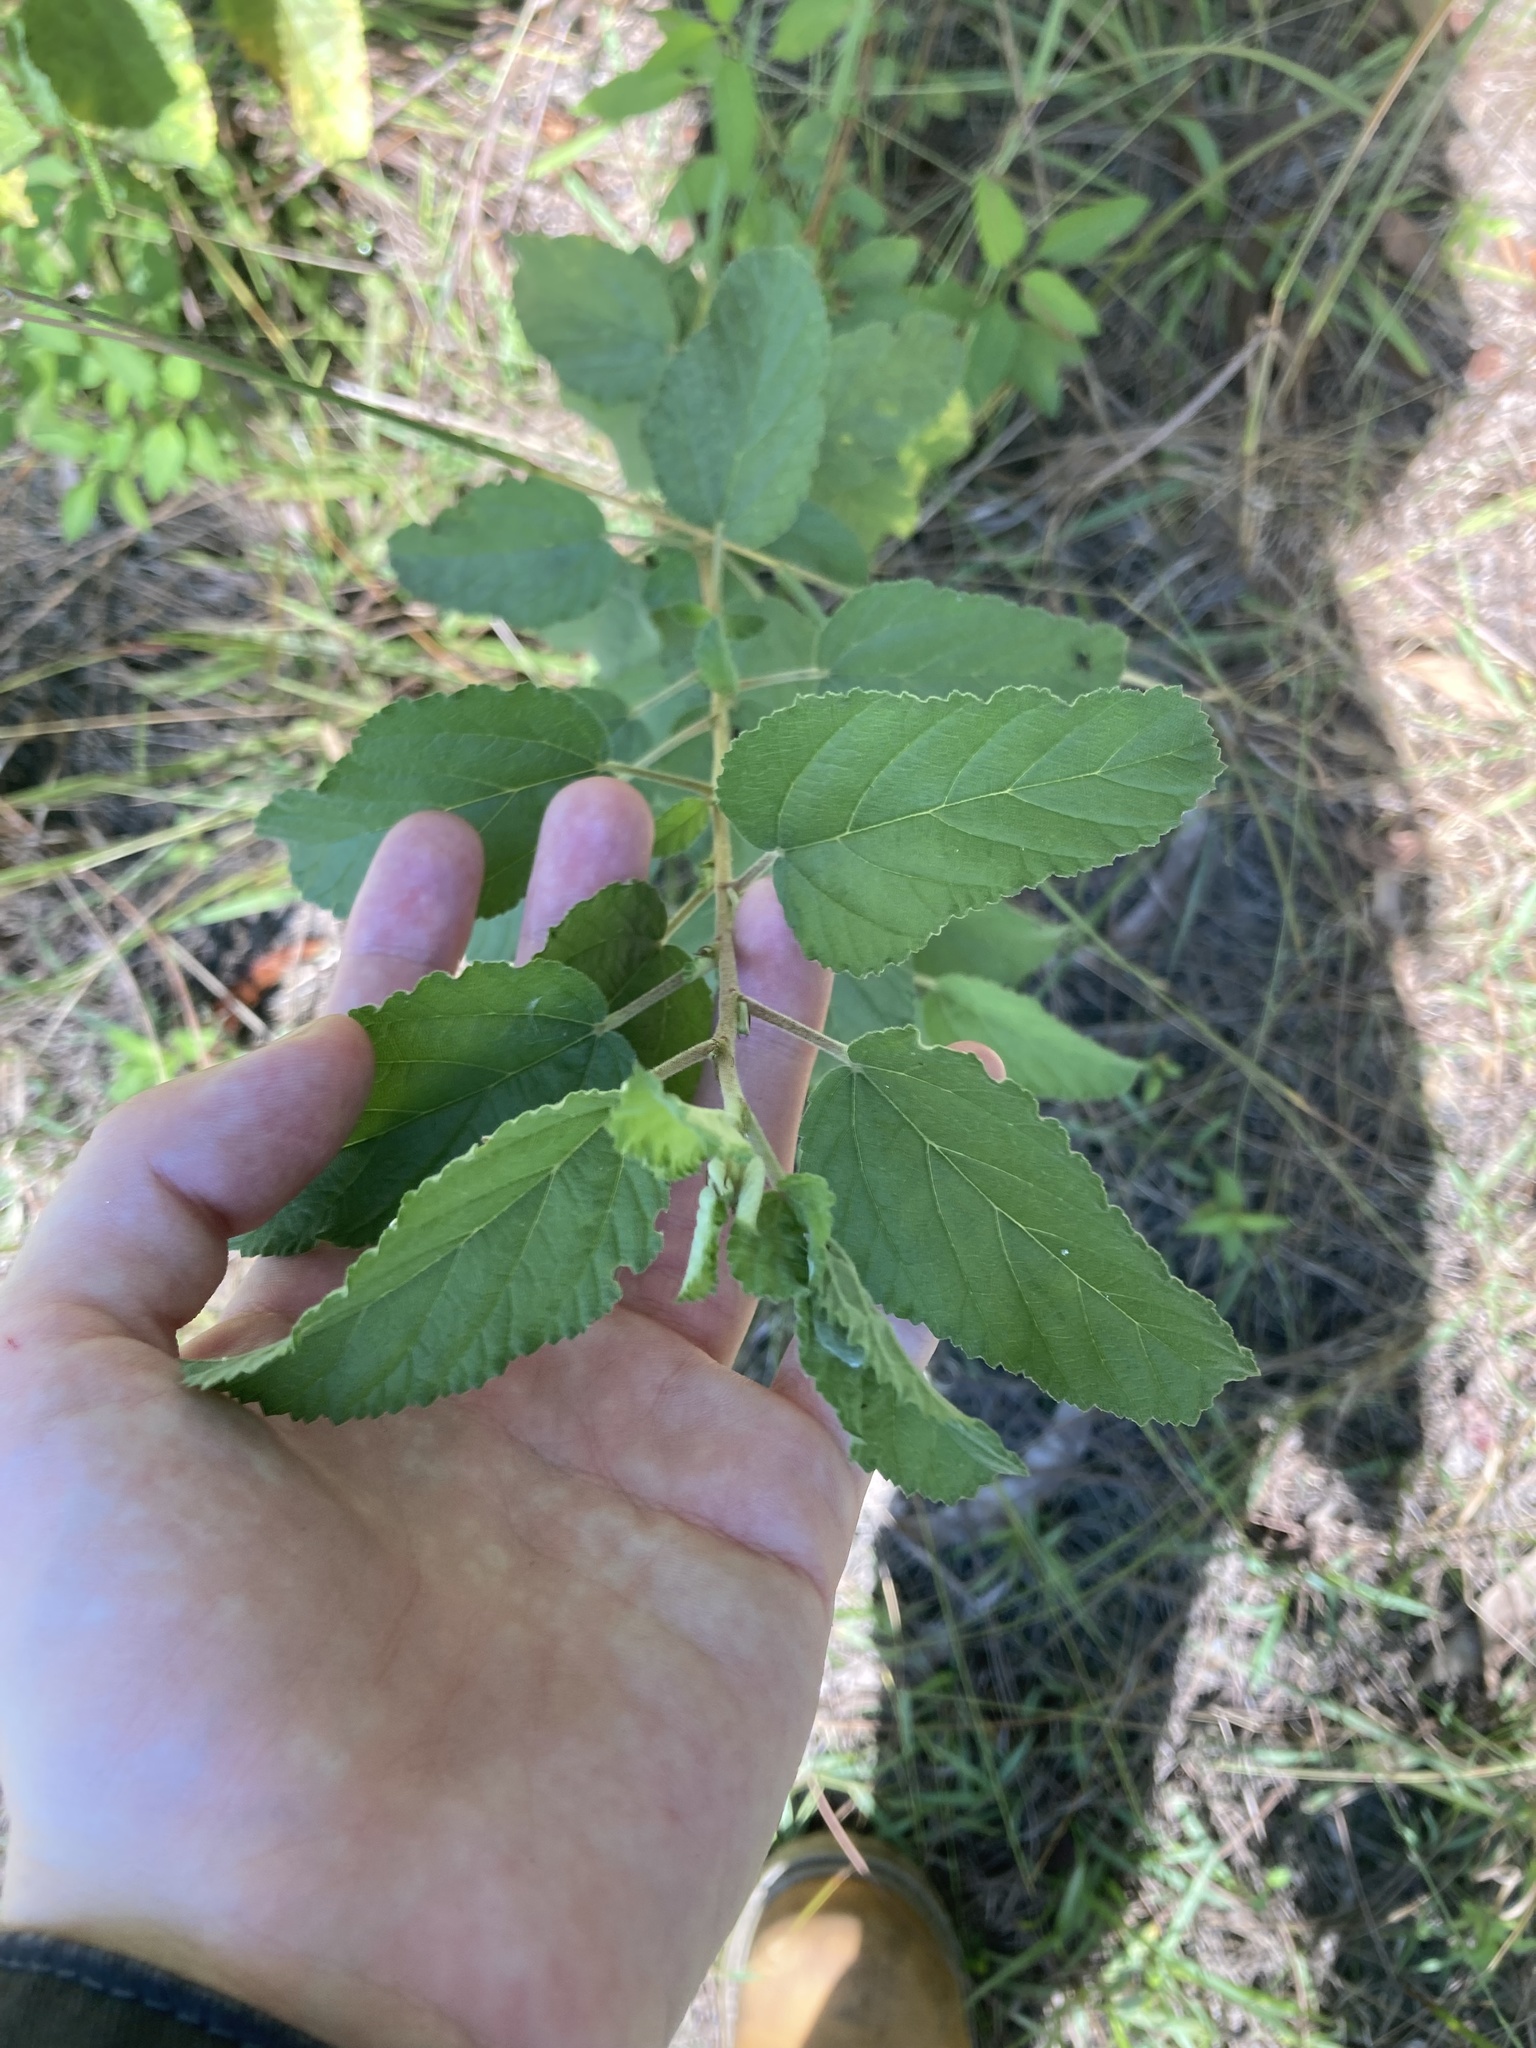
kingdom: Plantae
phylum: Tracheophyta
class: Magnoliopsida
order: Malvales
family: Malvaceae
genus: Waltheria
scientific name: Waltheria indica
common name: Leather-coat
